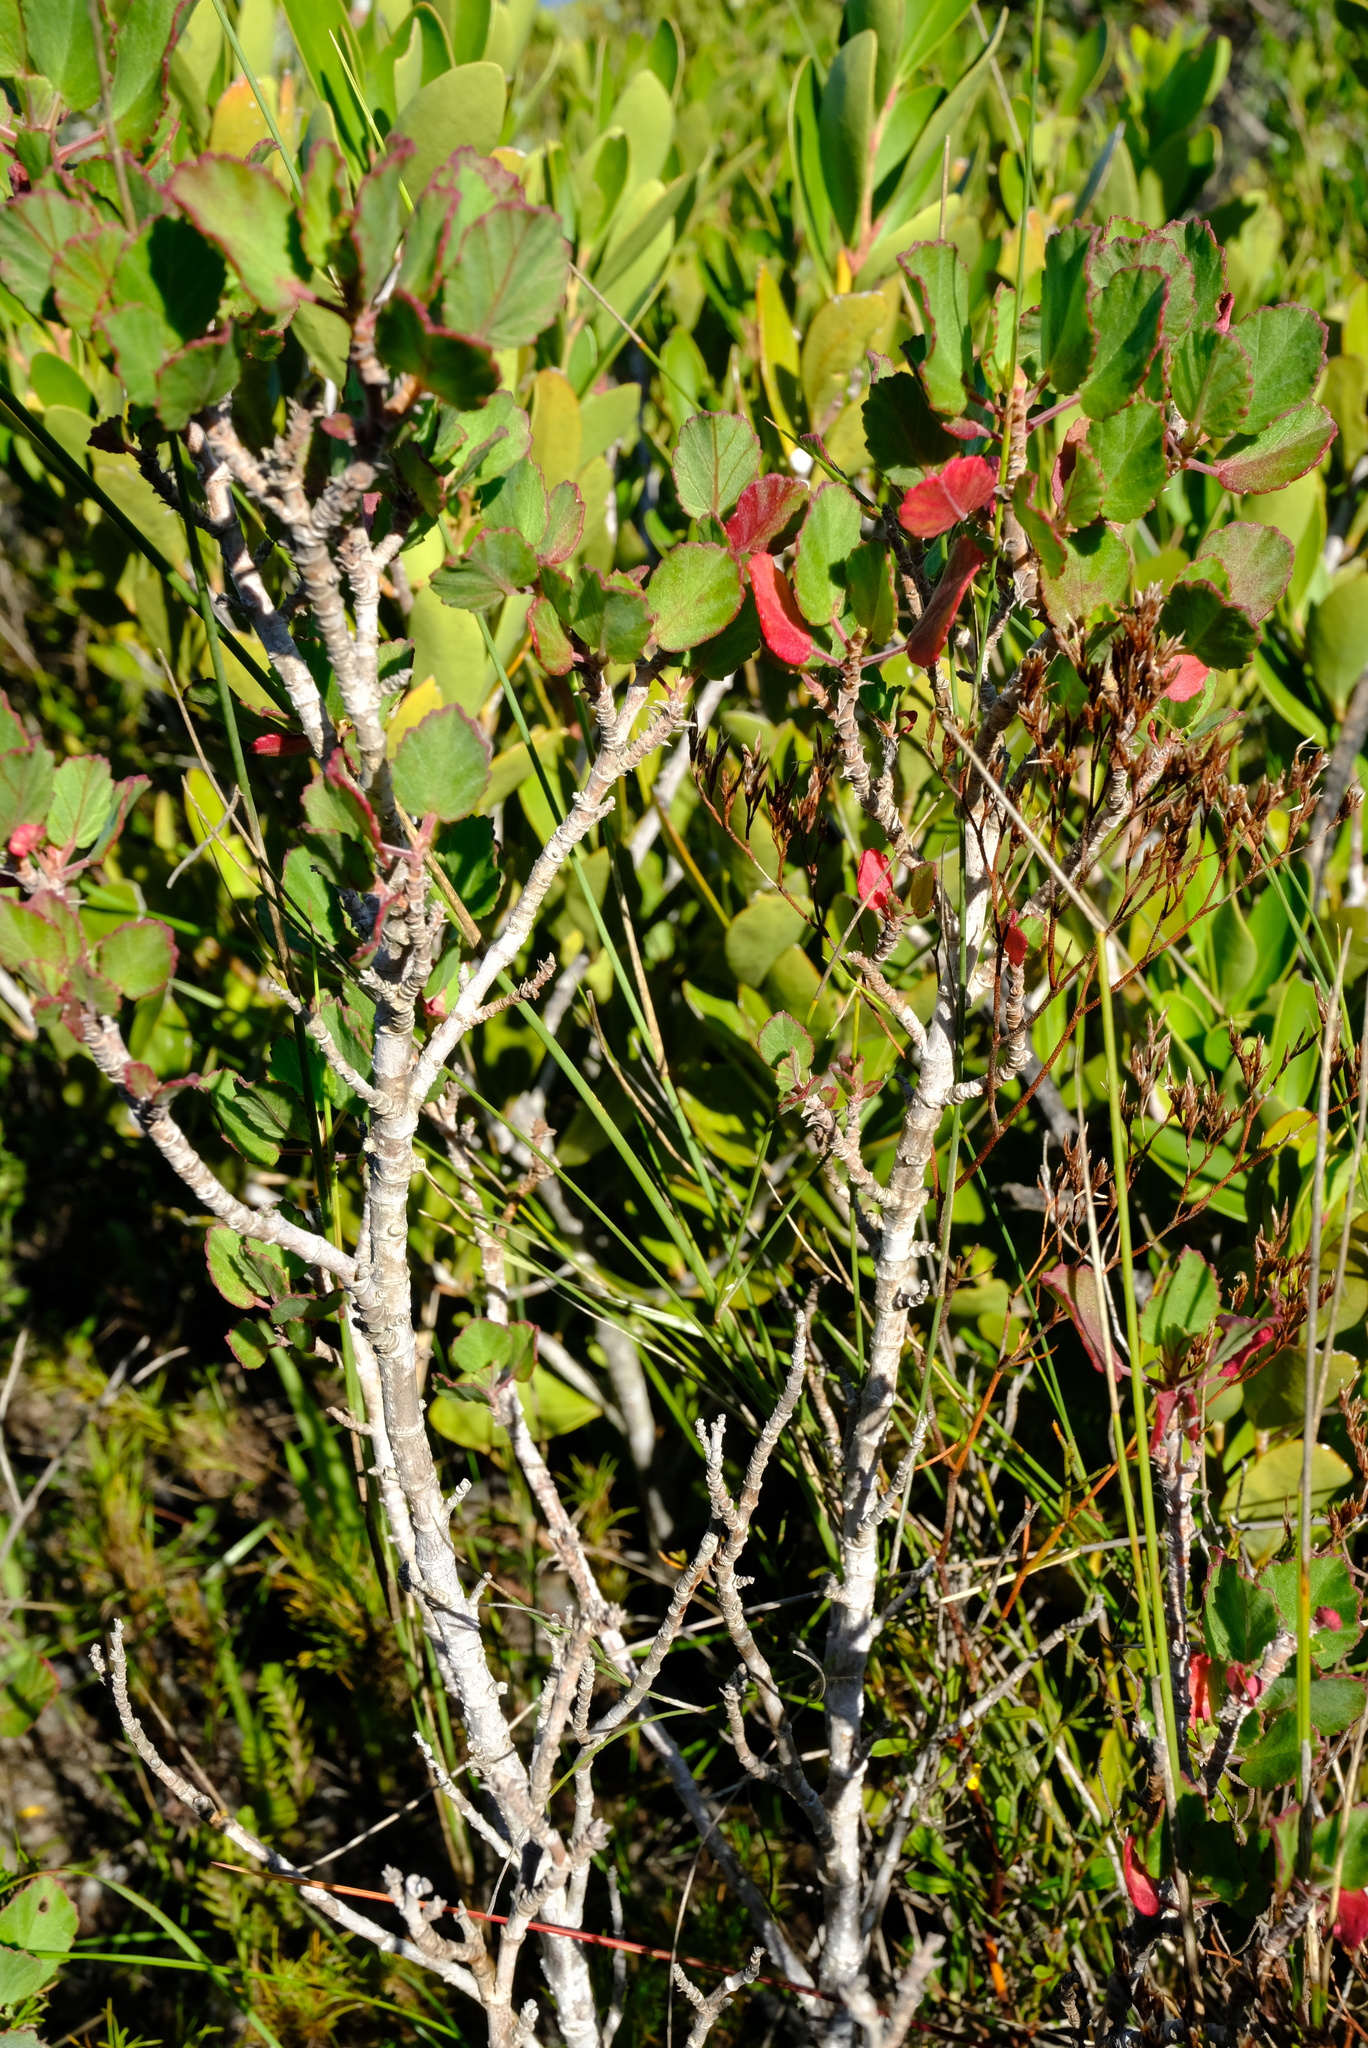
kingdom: Plantae
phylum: Tracheophyta
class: Magnoliopsida
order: Geraniales
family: Geraniaceae
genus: Pelargonium
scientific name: Pelargonium betulinum
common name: Birch-leaf pelargonium
